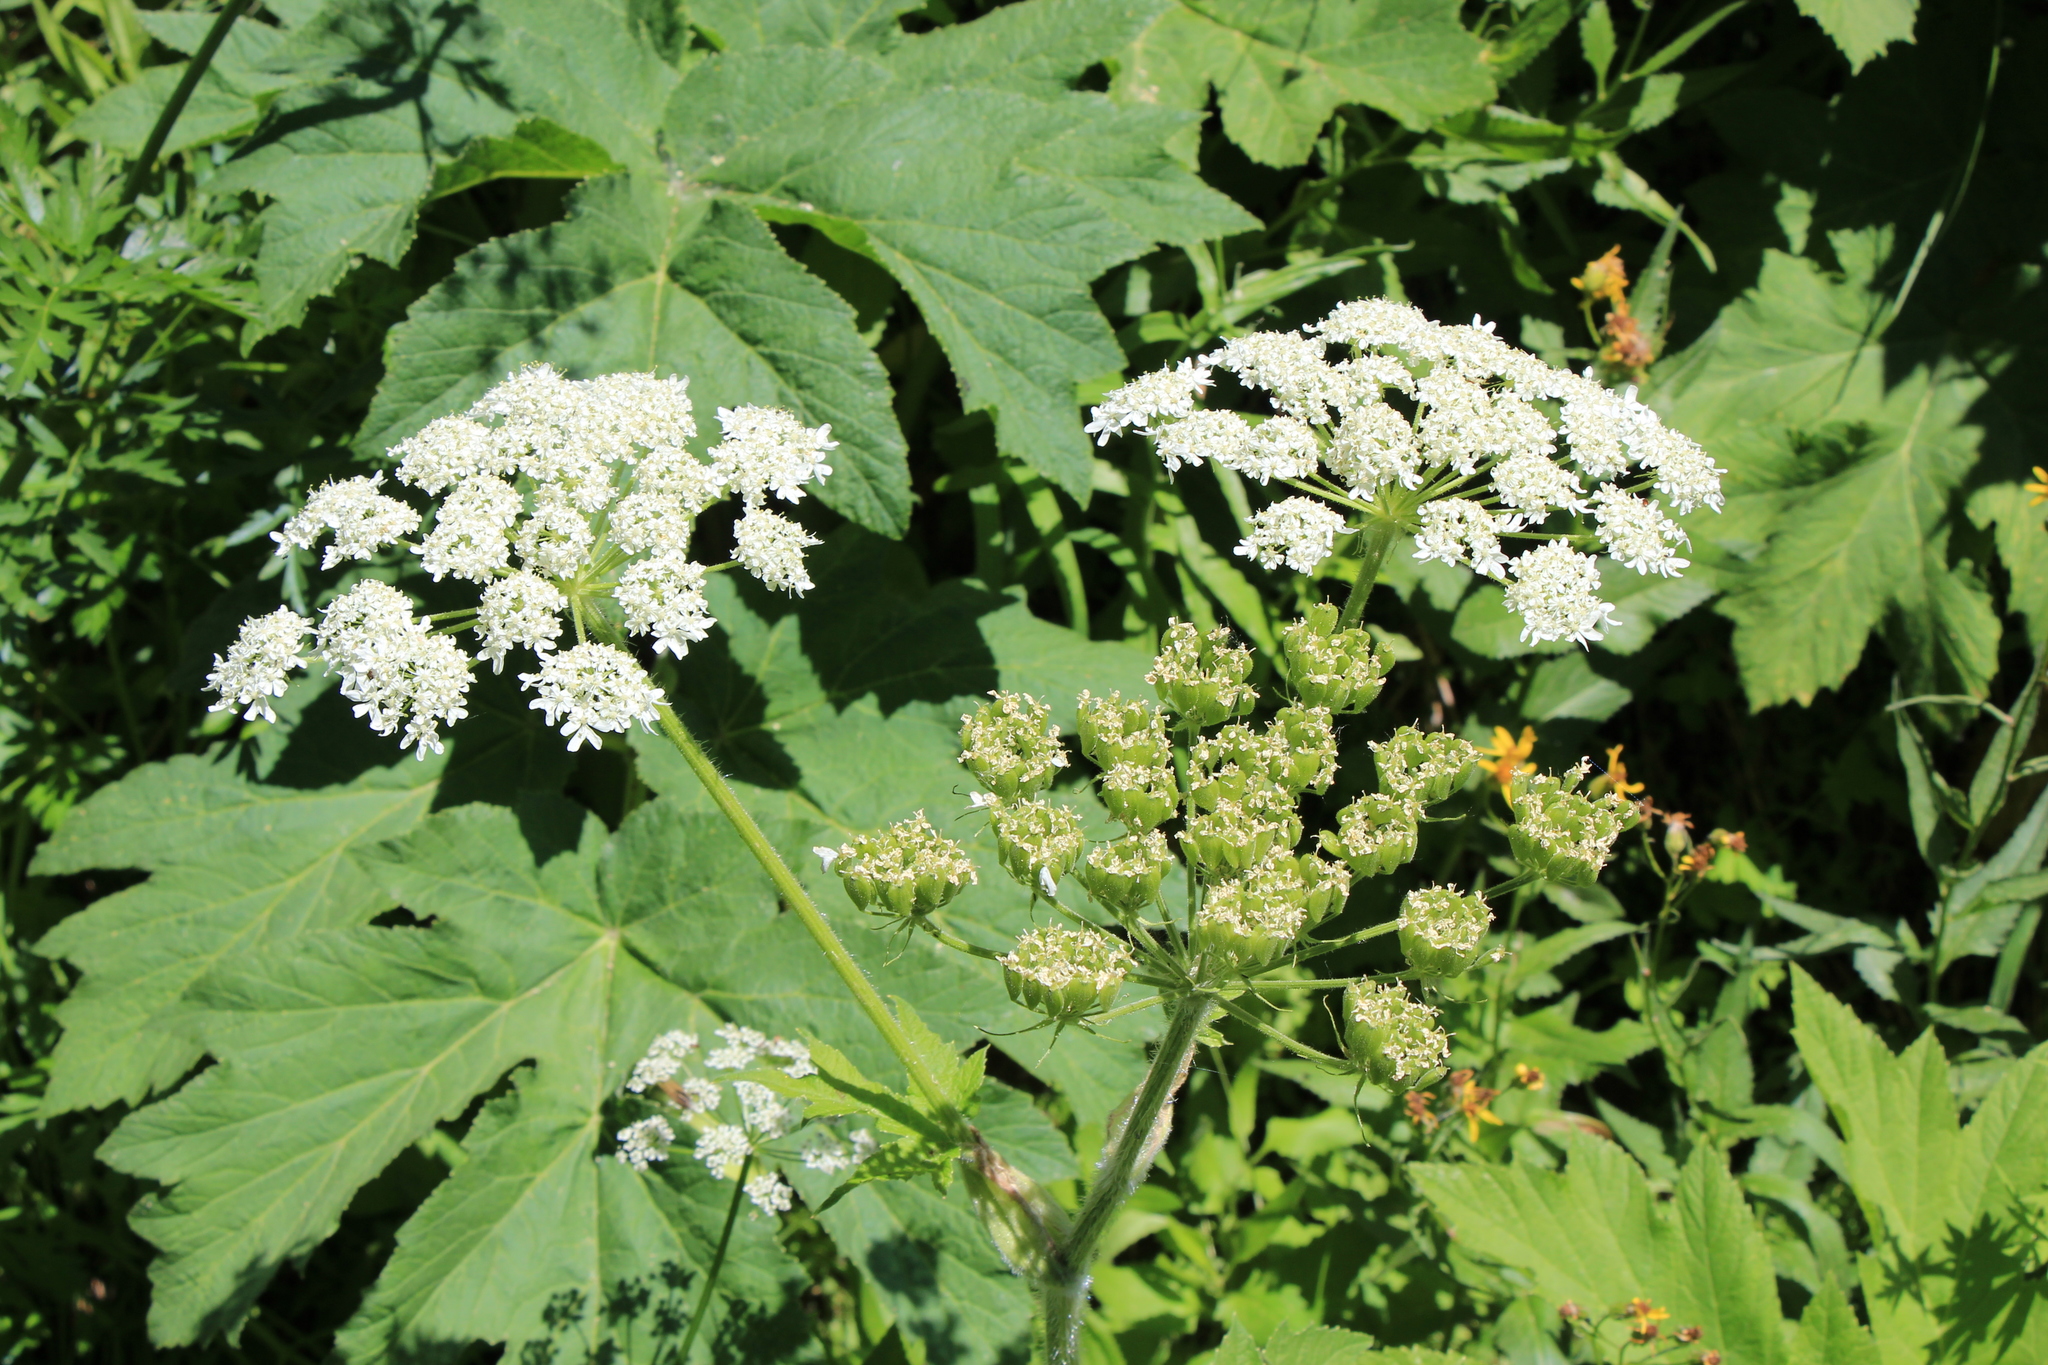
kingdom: Plantae
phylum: Tracheophyta
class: Magnoliopsida
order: Apiales
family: Apiaceae
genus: Heracleum
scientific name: Heracleum maximum
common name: American cow parsnip
